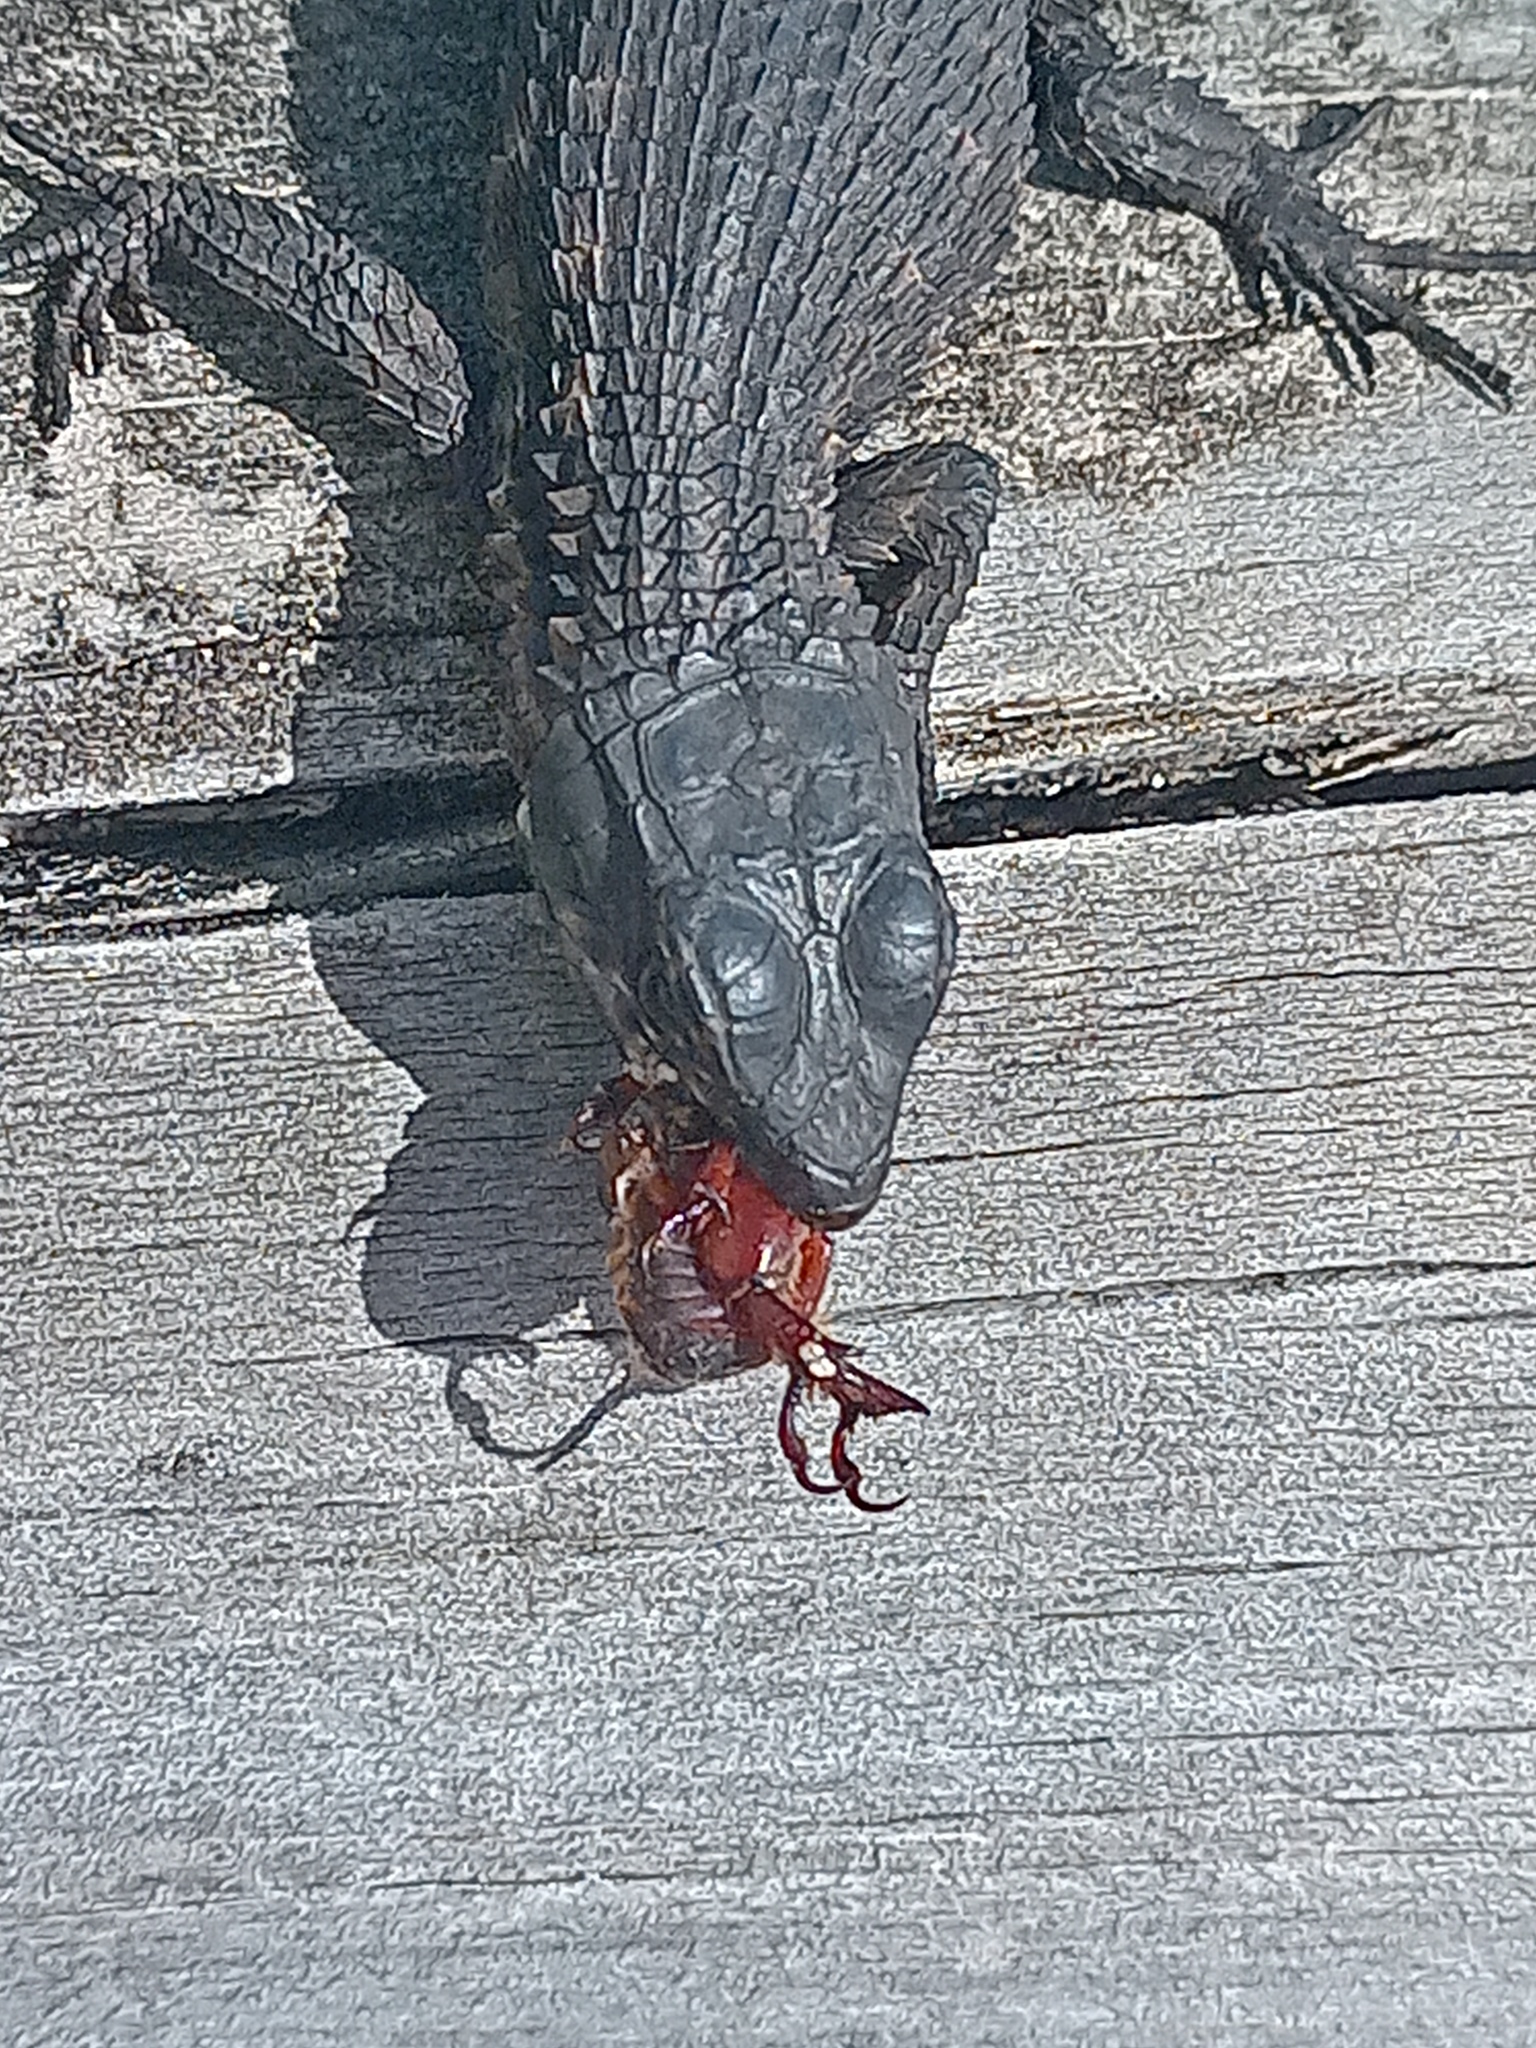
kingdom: Animalia
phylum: Chordata
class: Squamata
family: Cordylidae
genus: Cordylus
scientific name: Cordylus niger
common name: Black girdled lizard
